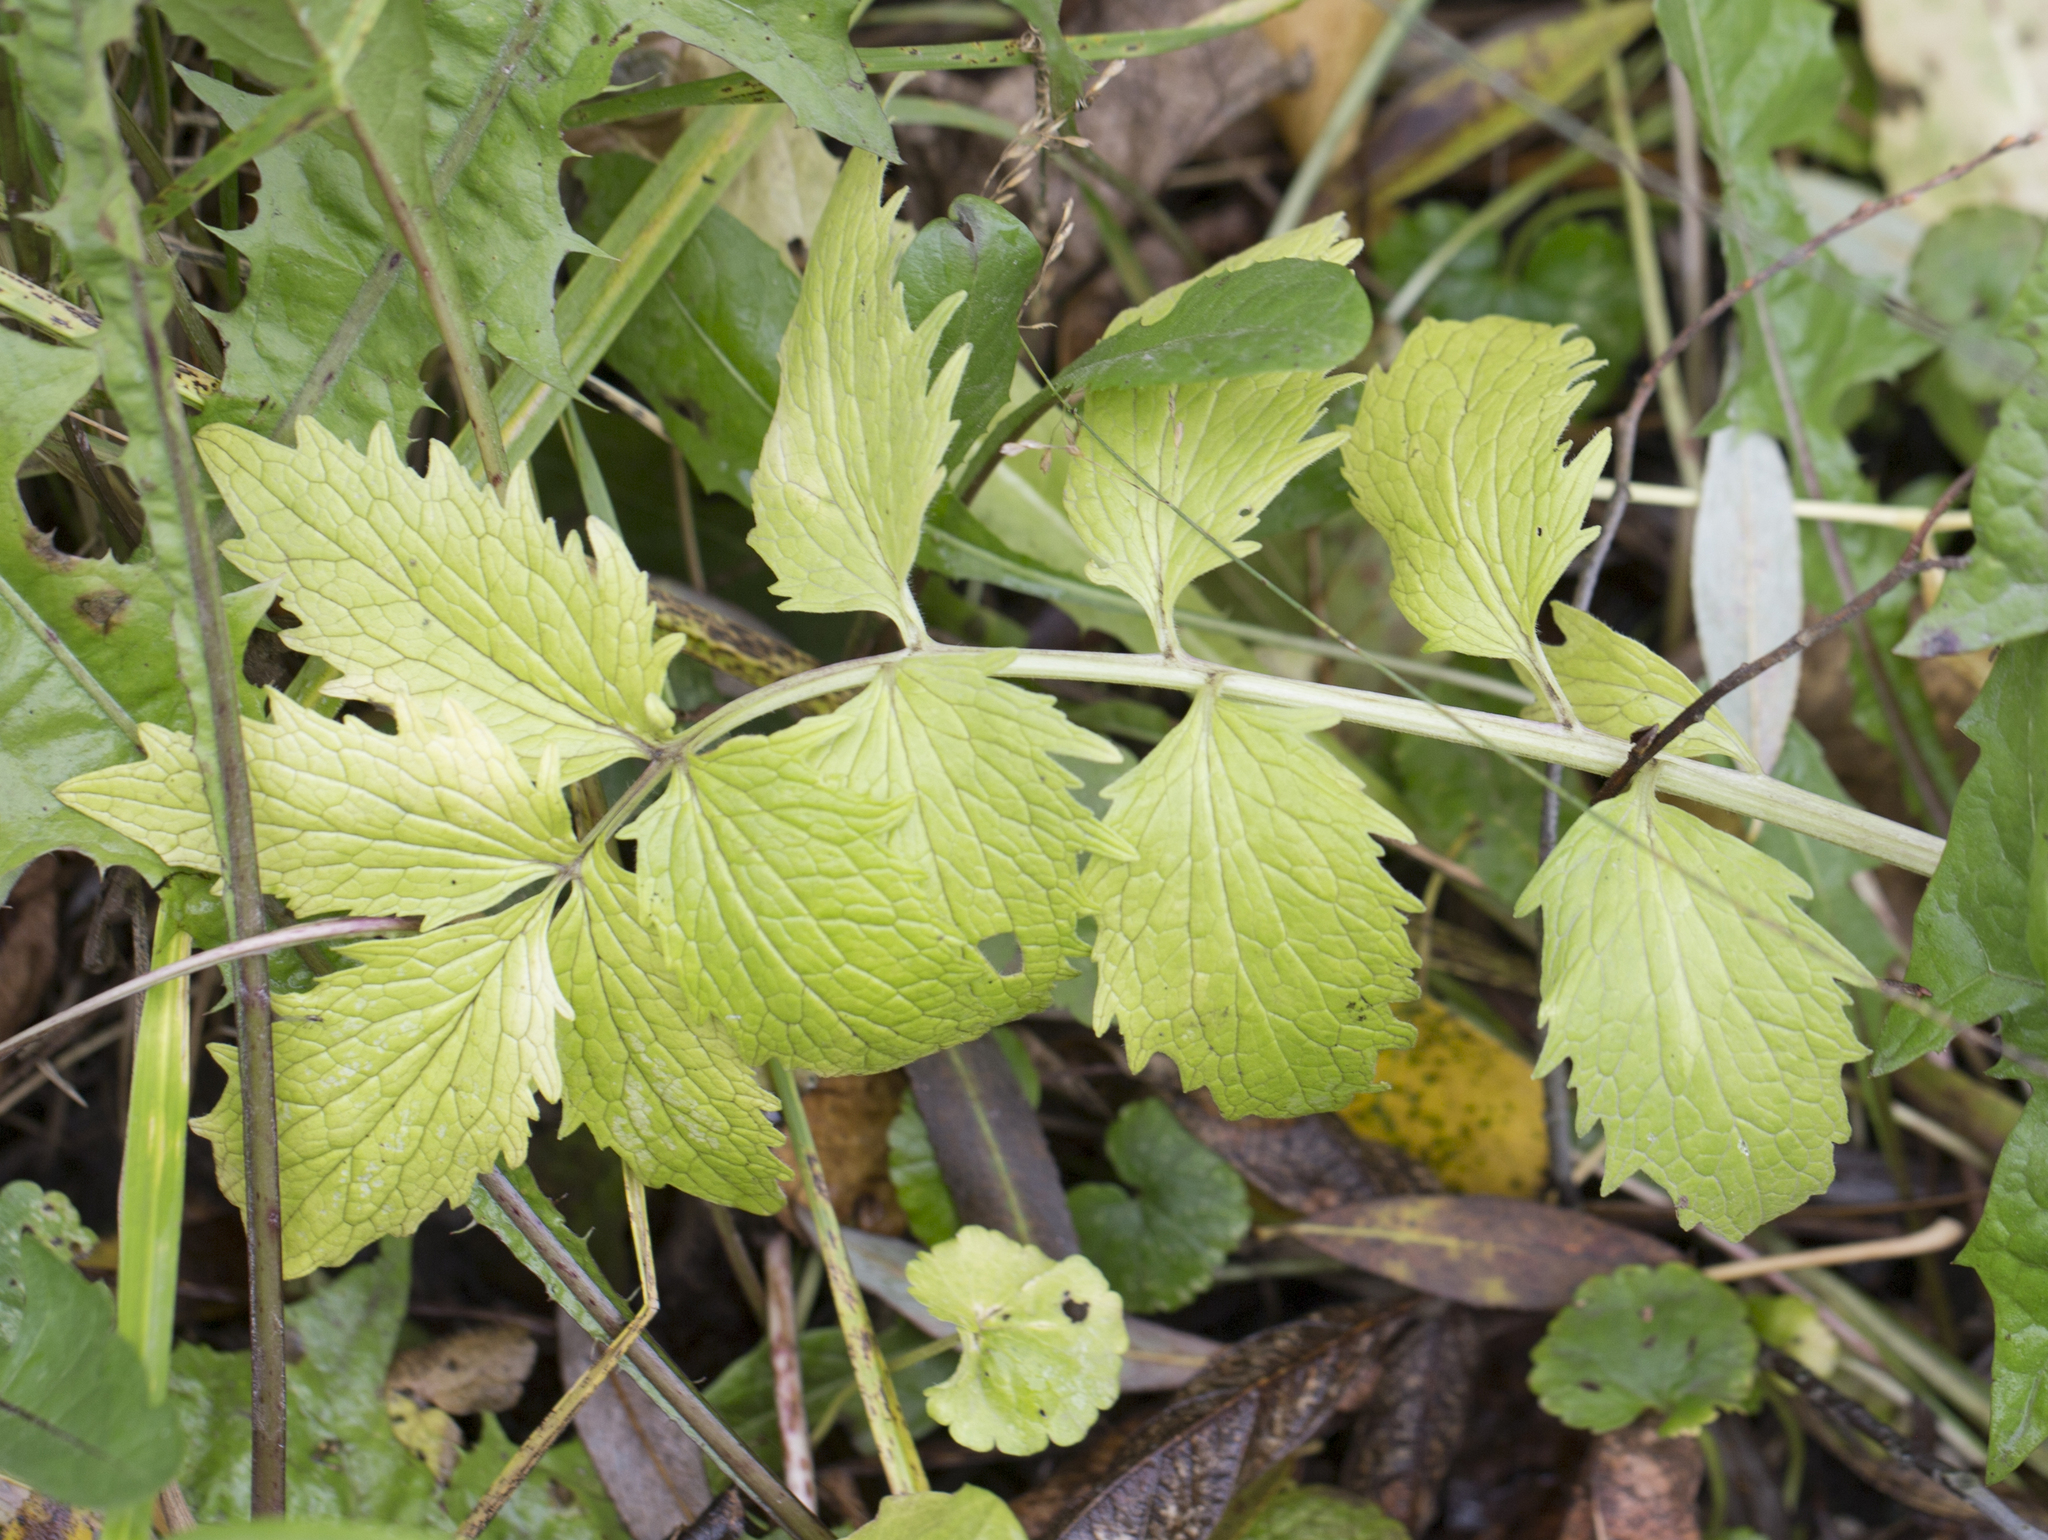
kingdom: Plantae
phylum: Tracheophyta
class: Magnoliopsida
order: Dipsacales
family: Caprifoliaceae
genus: Valeriana
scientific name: Valeriana officinalis
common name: Common valerian
